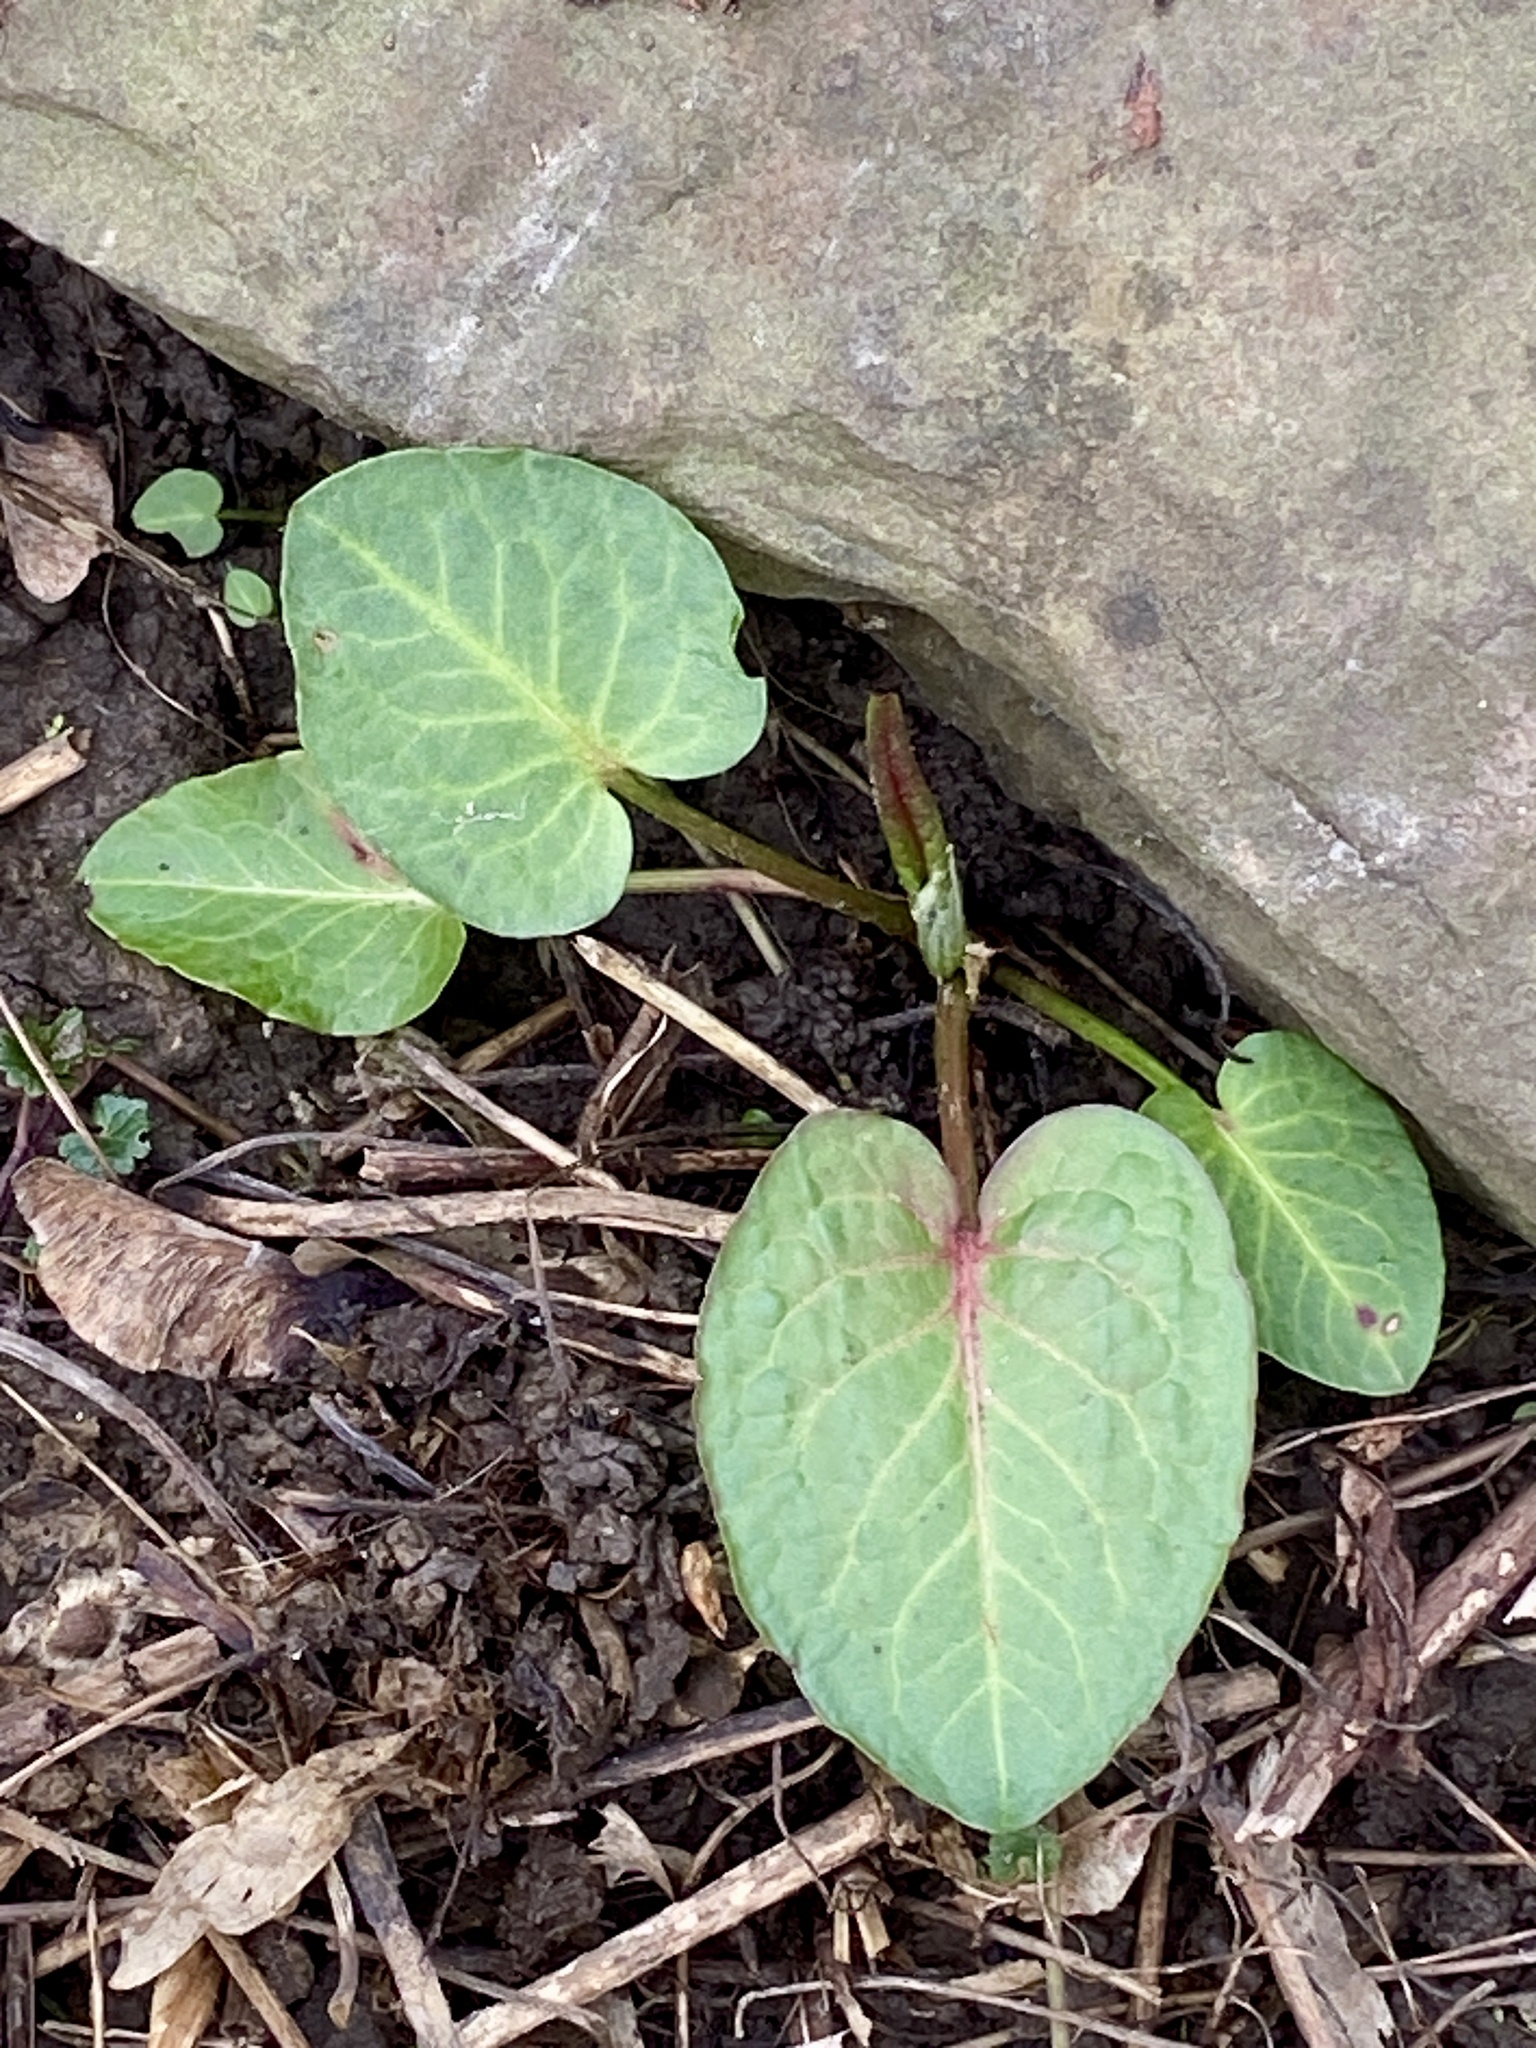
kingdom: Plantae
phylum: Tracheophyta
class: Magnoliopsida
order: Caryophyllales
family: Polygonaceae
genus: Rumex
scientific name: Rumex obtusifolius
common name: Bitter dock
